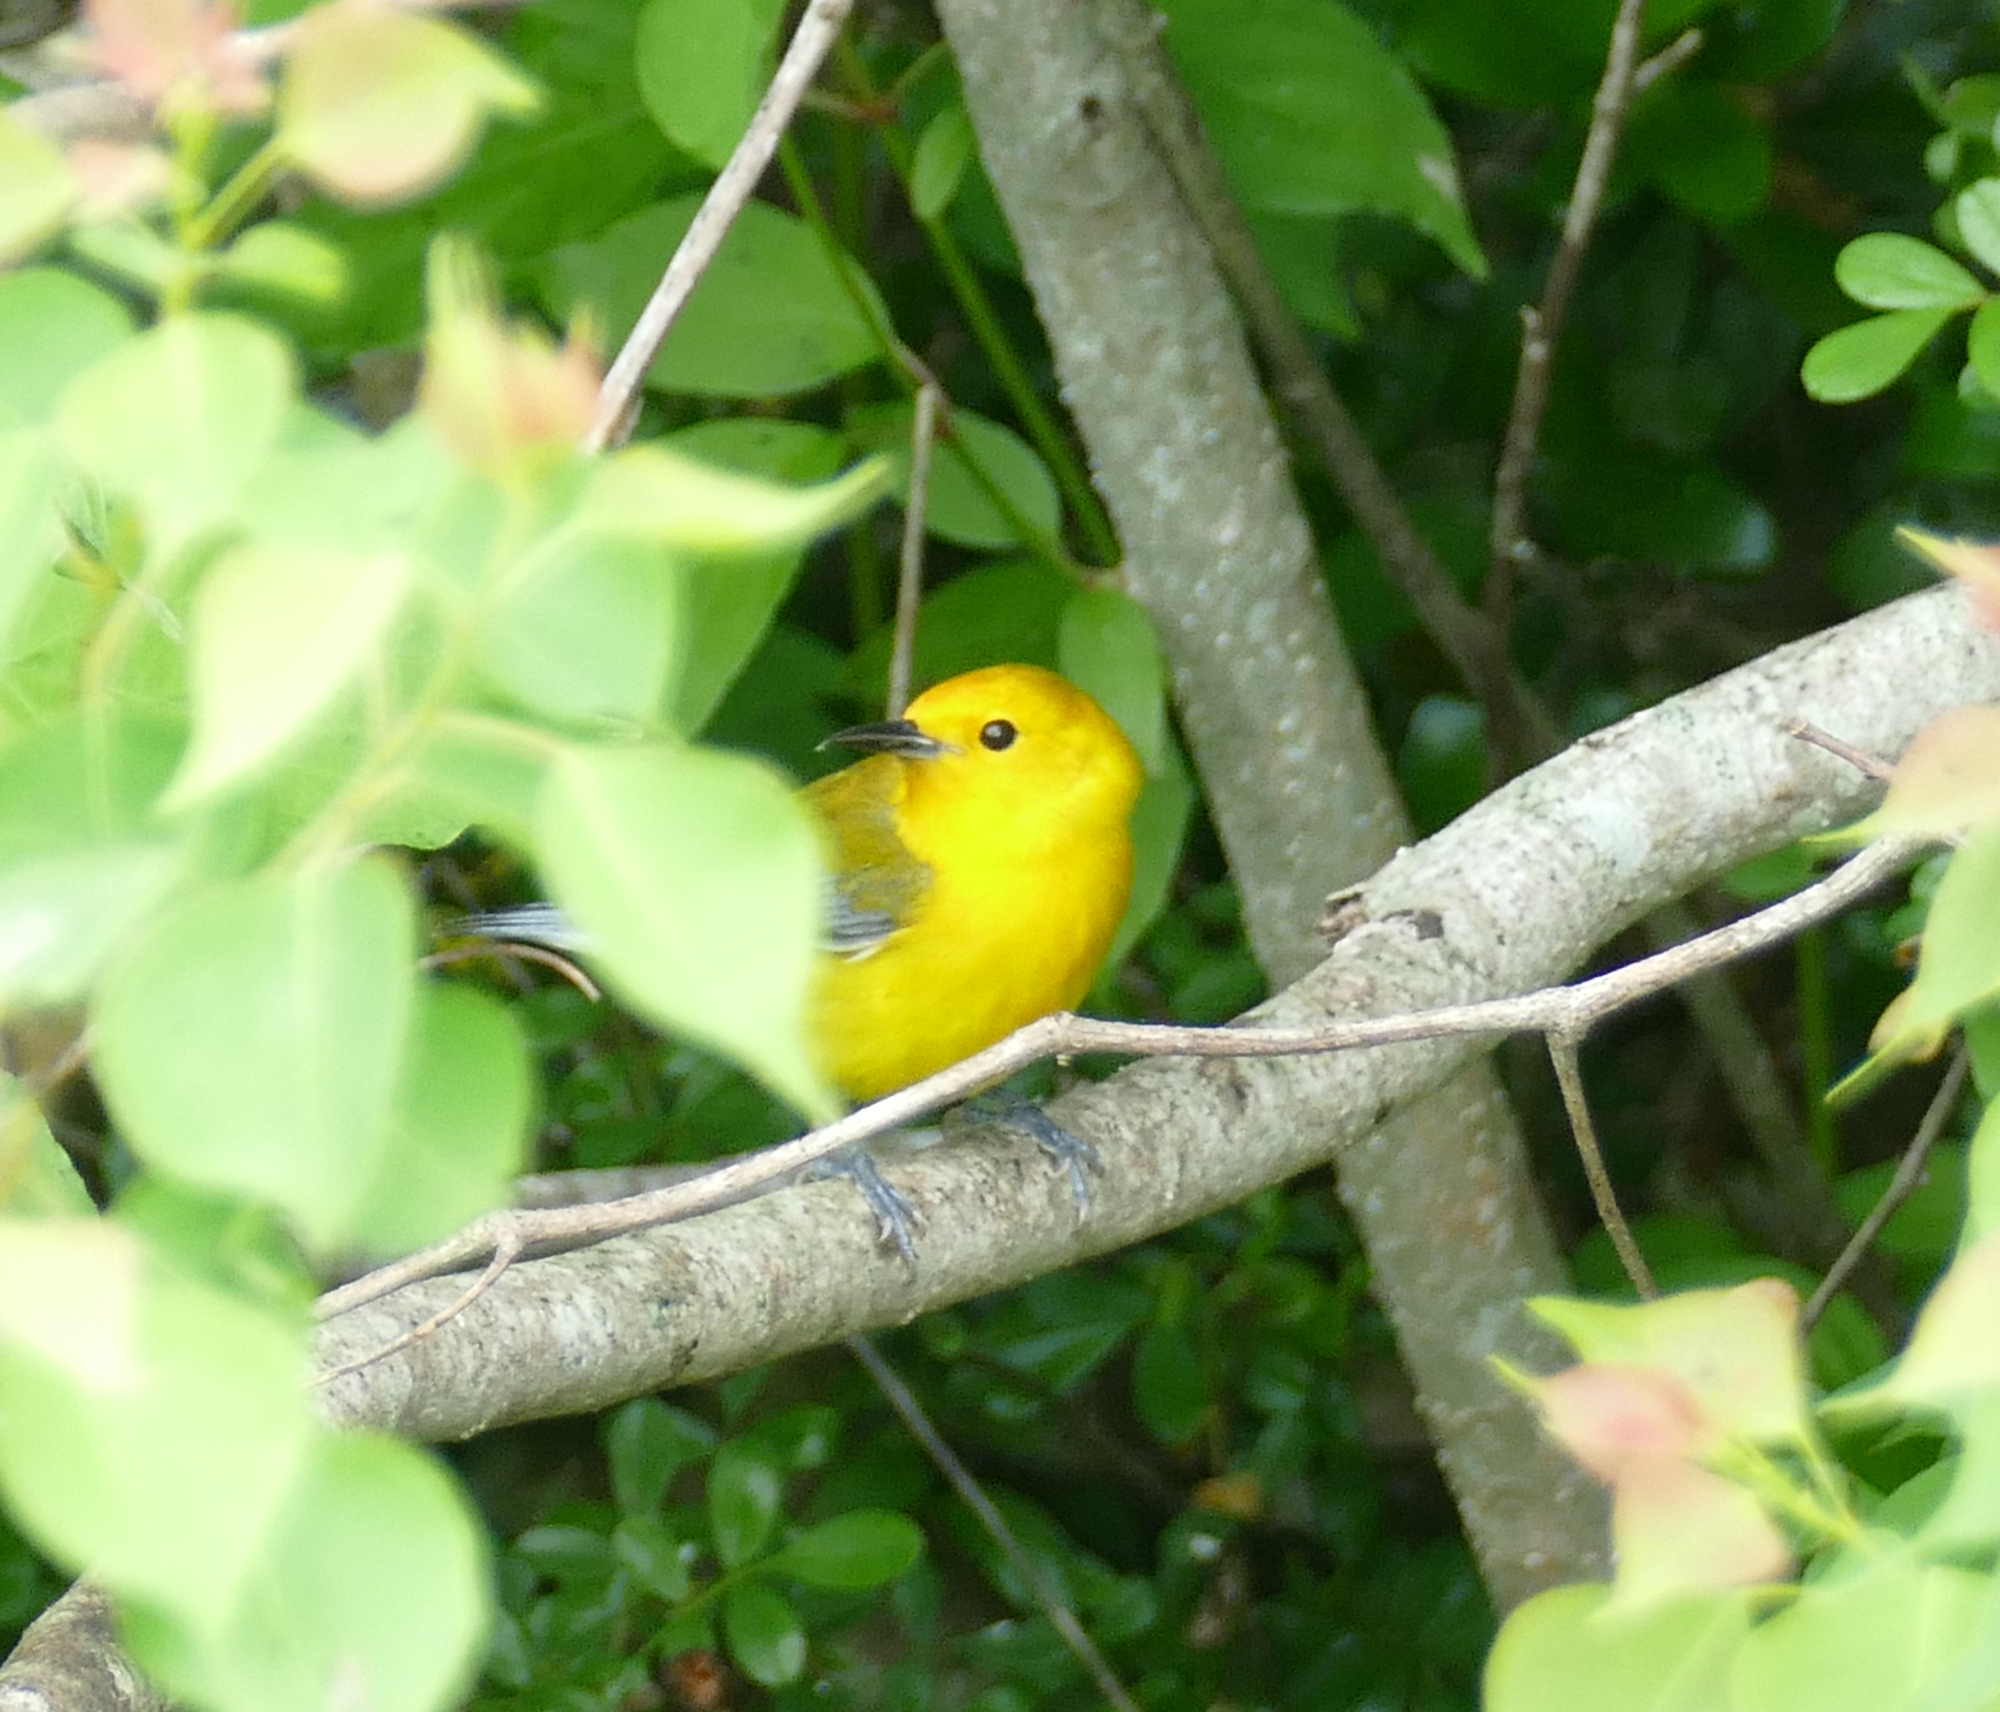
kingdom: Animalia
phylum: Chordata
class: Aves
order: Passeriformes
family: Parulidae
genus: Protonotaria
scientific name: Protonotaria citrea
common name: Prothonotary warbler
